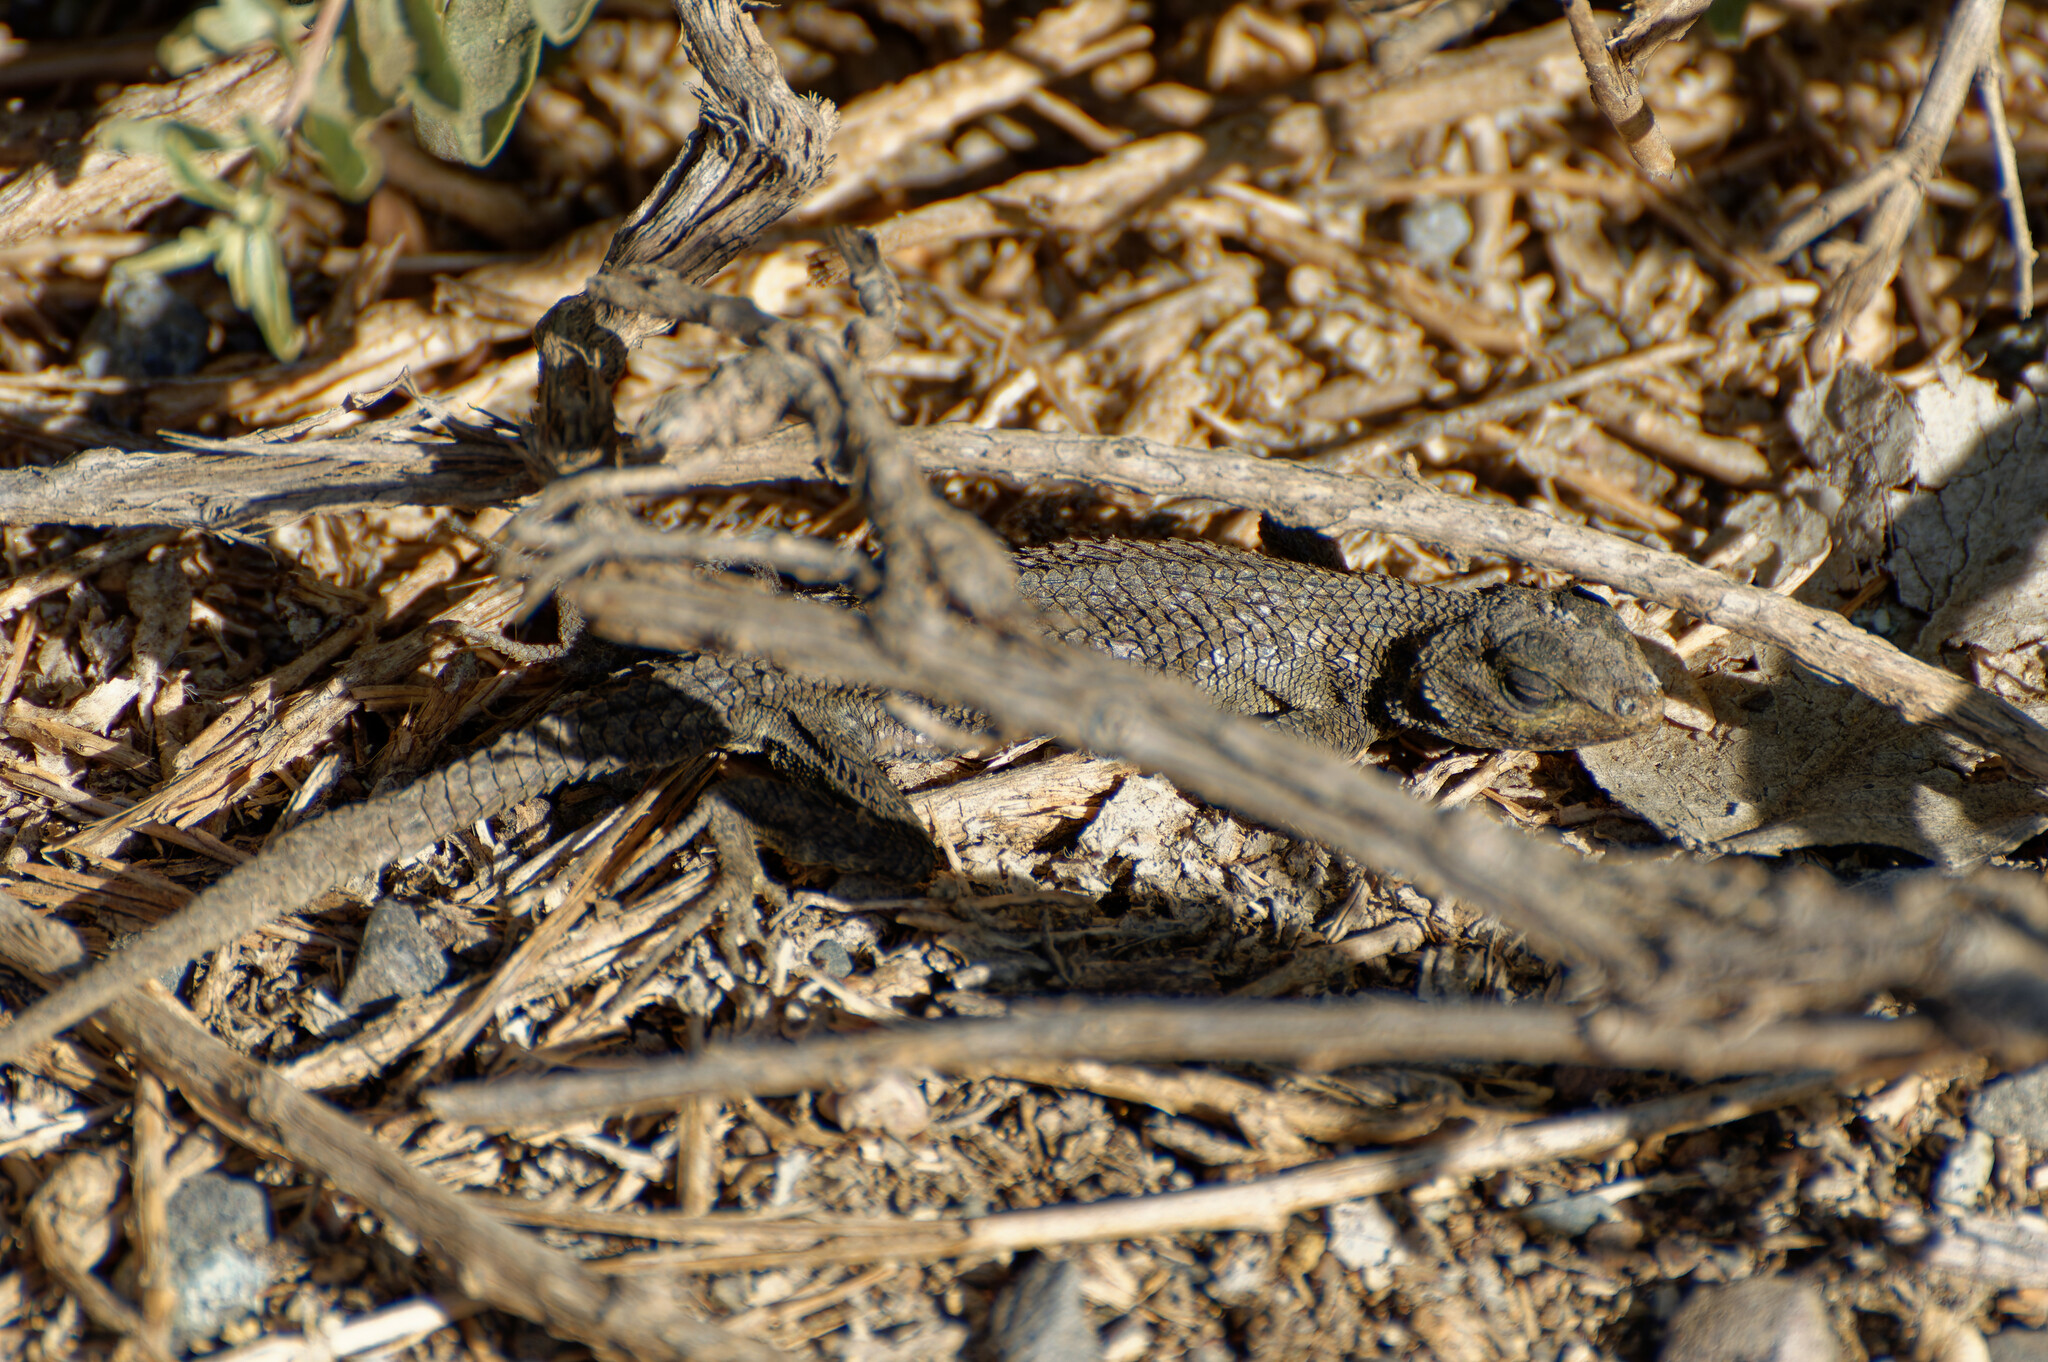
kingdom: Animalia
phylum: Chordata
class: Squamata
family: Phrynosomatidae
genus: Sceloporus
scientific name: Sceloporus occidentalis
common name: Western fence lizard
